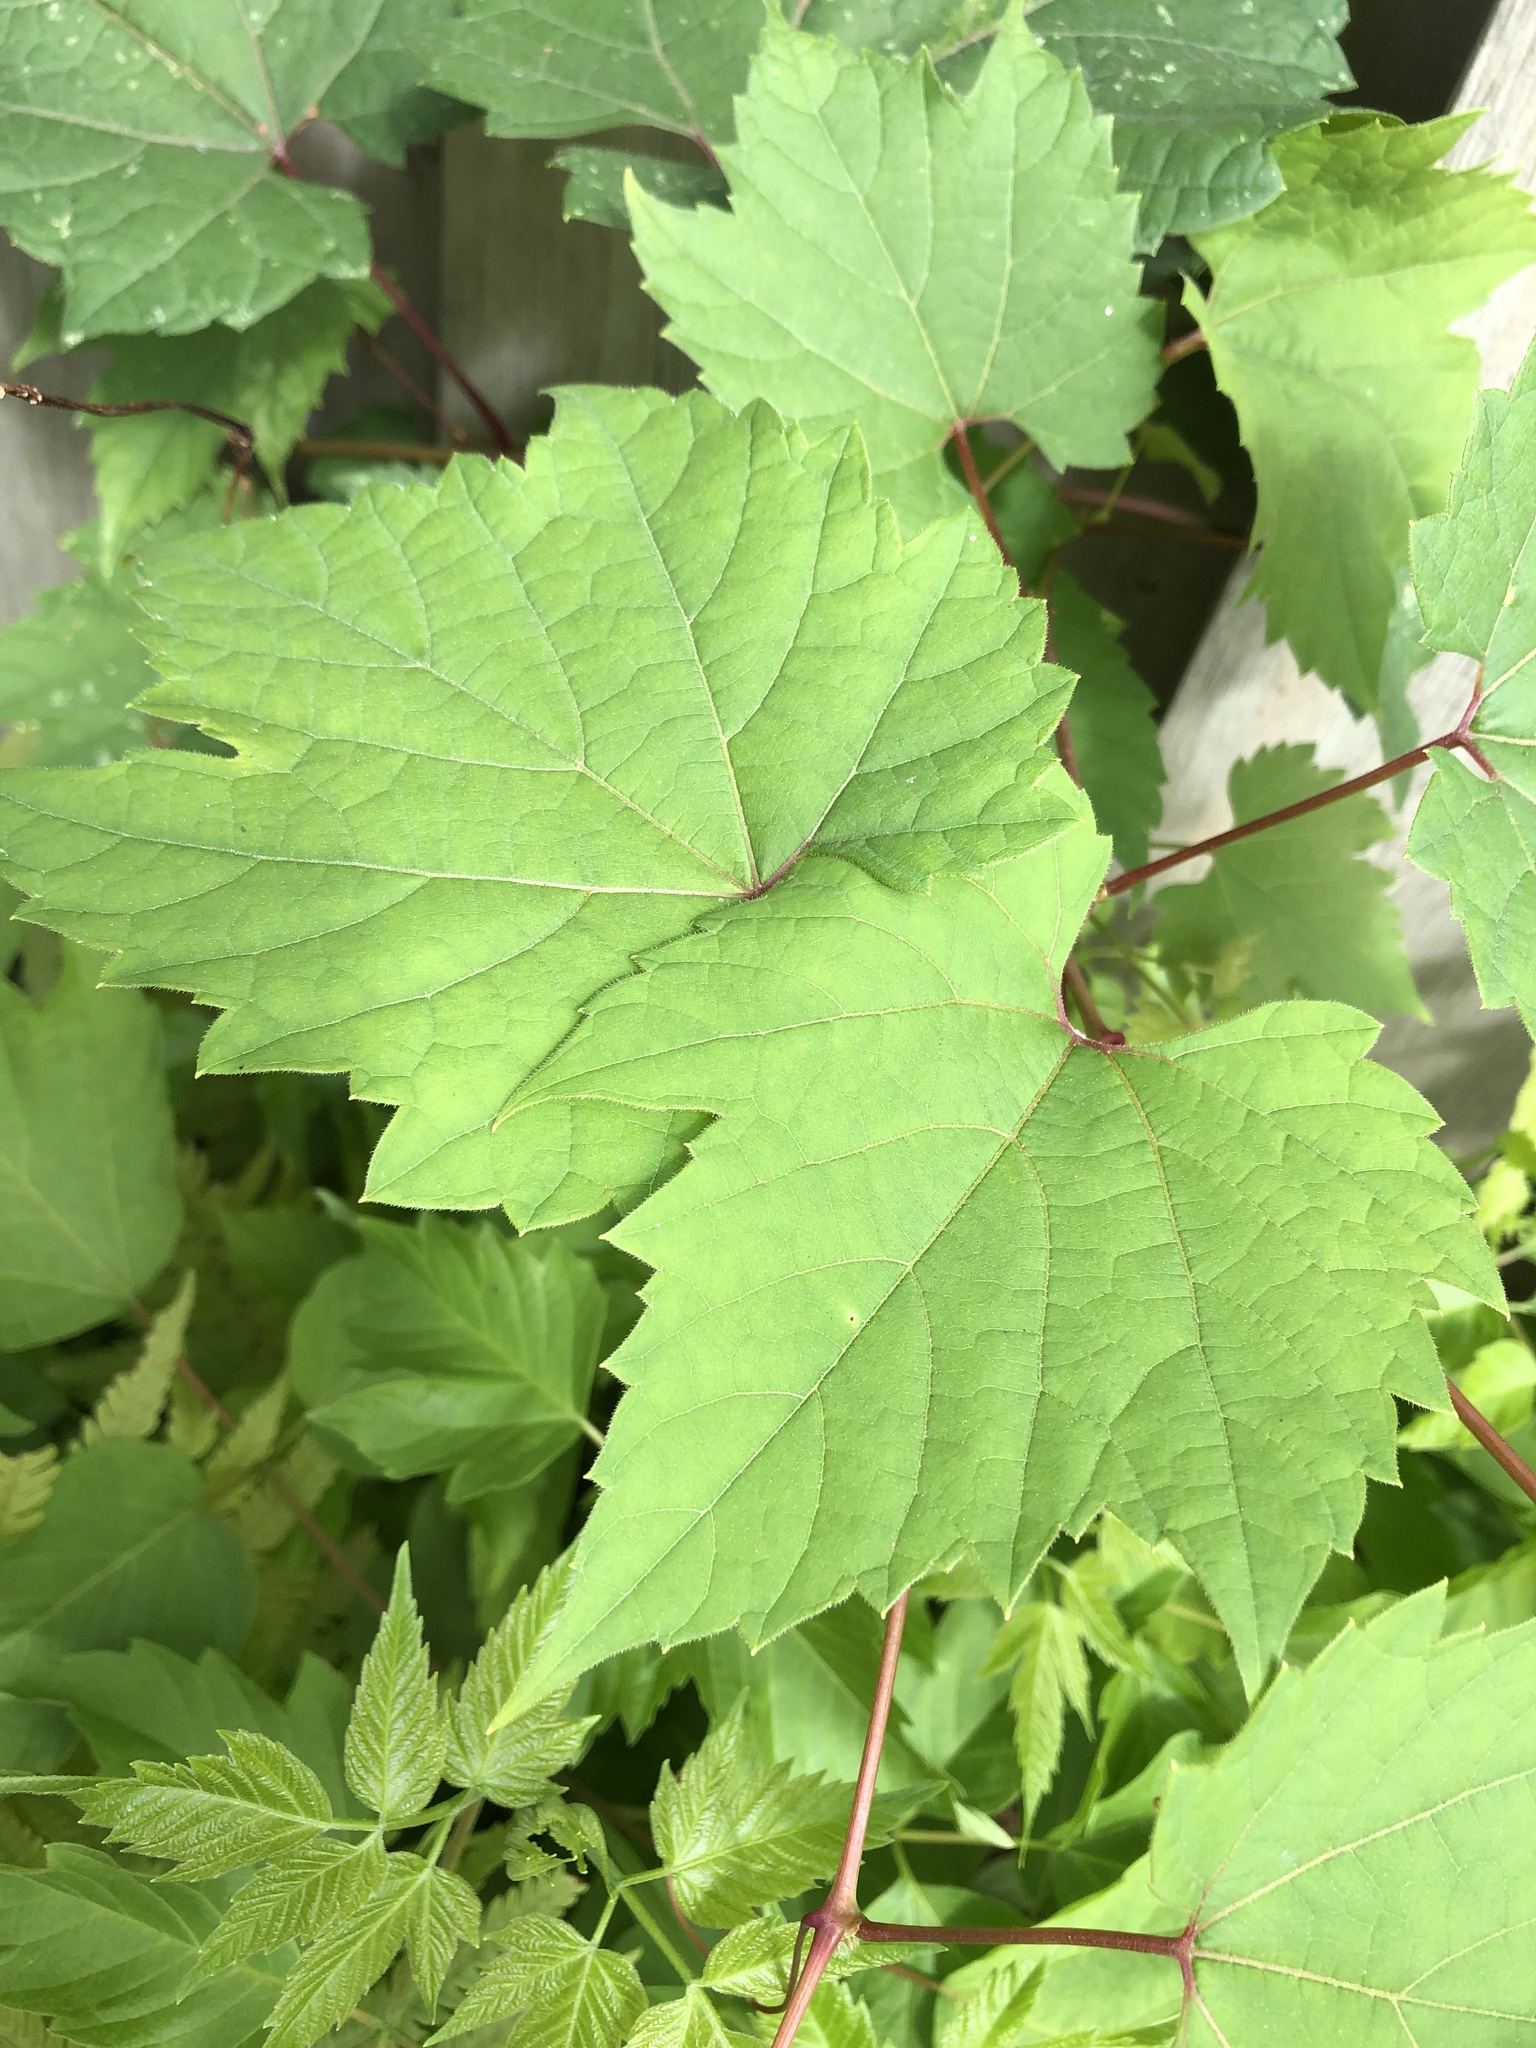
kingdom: Plantae
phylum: Tracheophyta
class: Magnoliopsida
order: Vitales
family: Vitaceae
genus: Vitis
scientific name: Vitis riparia
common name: Frost grape
